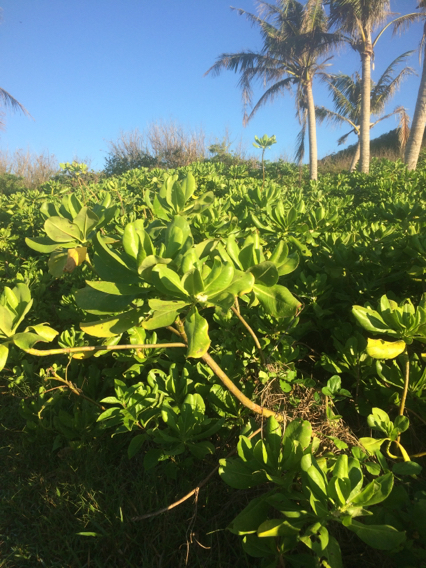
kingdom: Plantae
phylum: Tracheophyta
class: Magnoliopsida
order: Asterales
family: Goodeniaceae
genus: Scaevola
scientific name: Scaevola taccada
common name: Sea lettucetree
